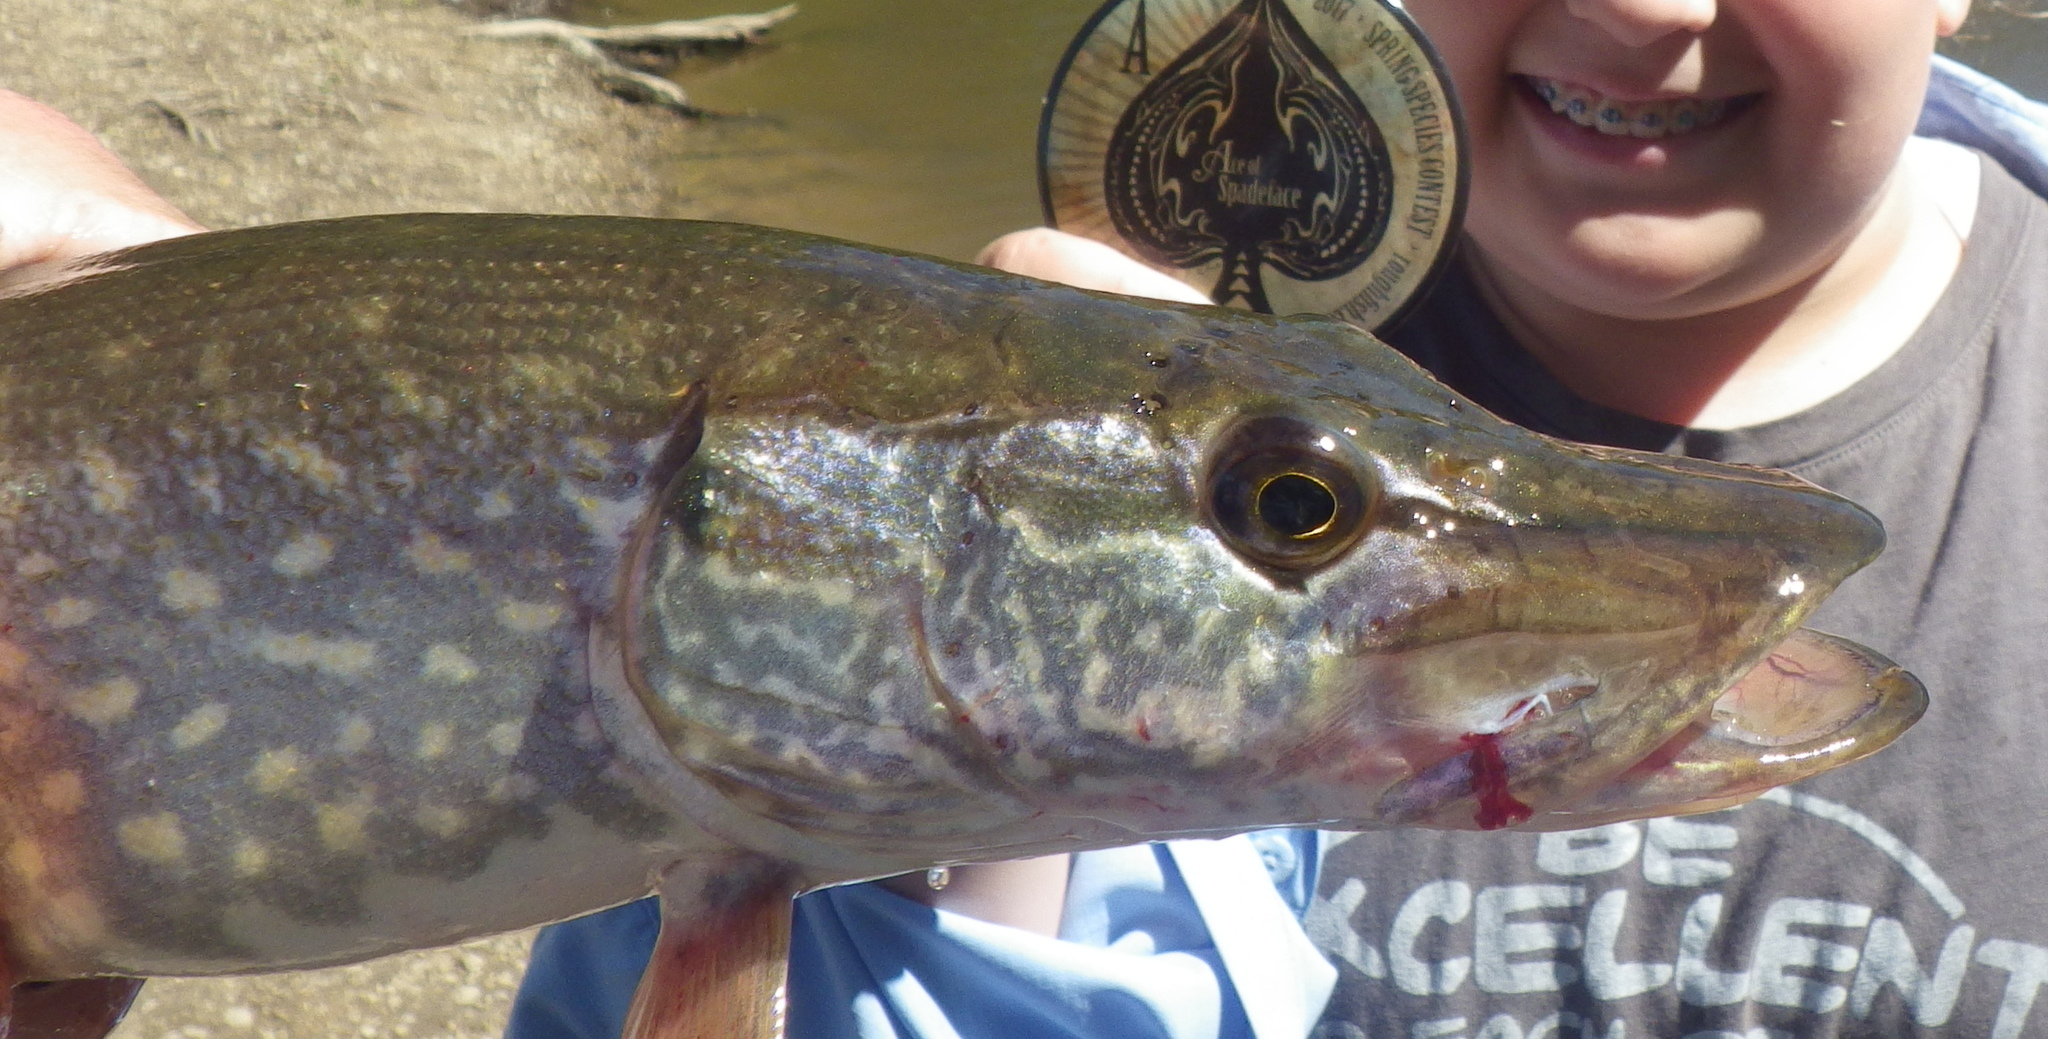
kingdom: Animalia
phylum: Chordata
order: Esociformes
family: Esocidae
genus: Esox
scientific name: Esox lucius
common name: Northern pike
